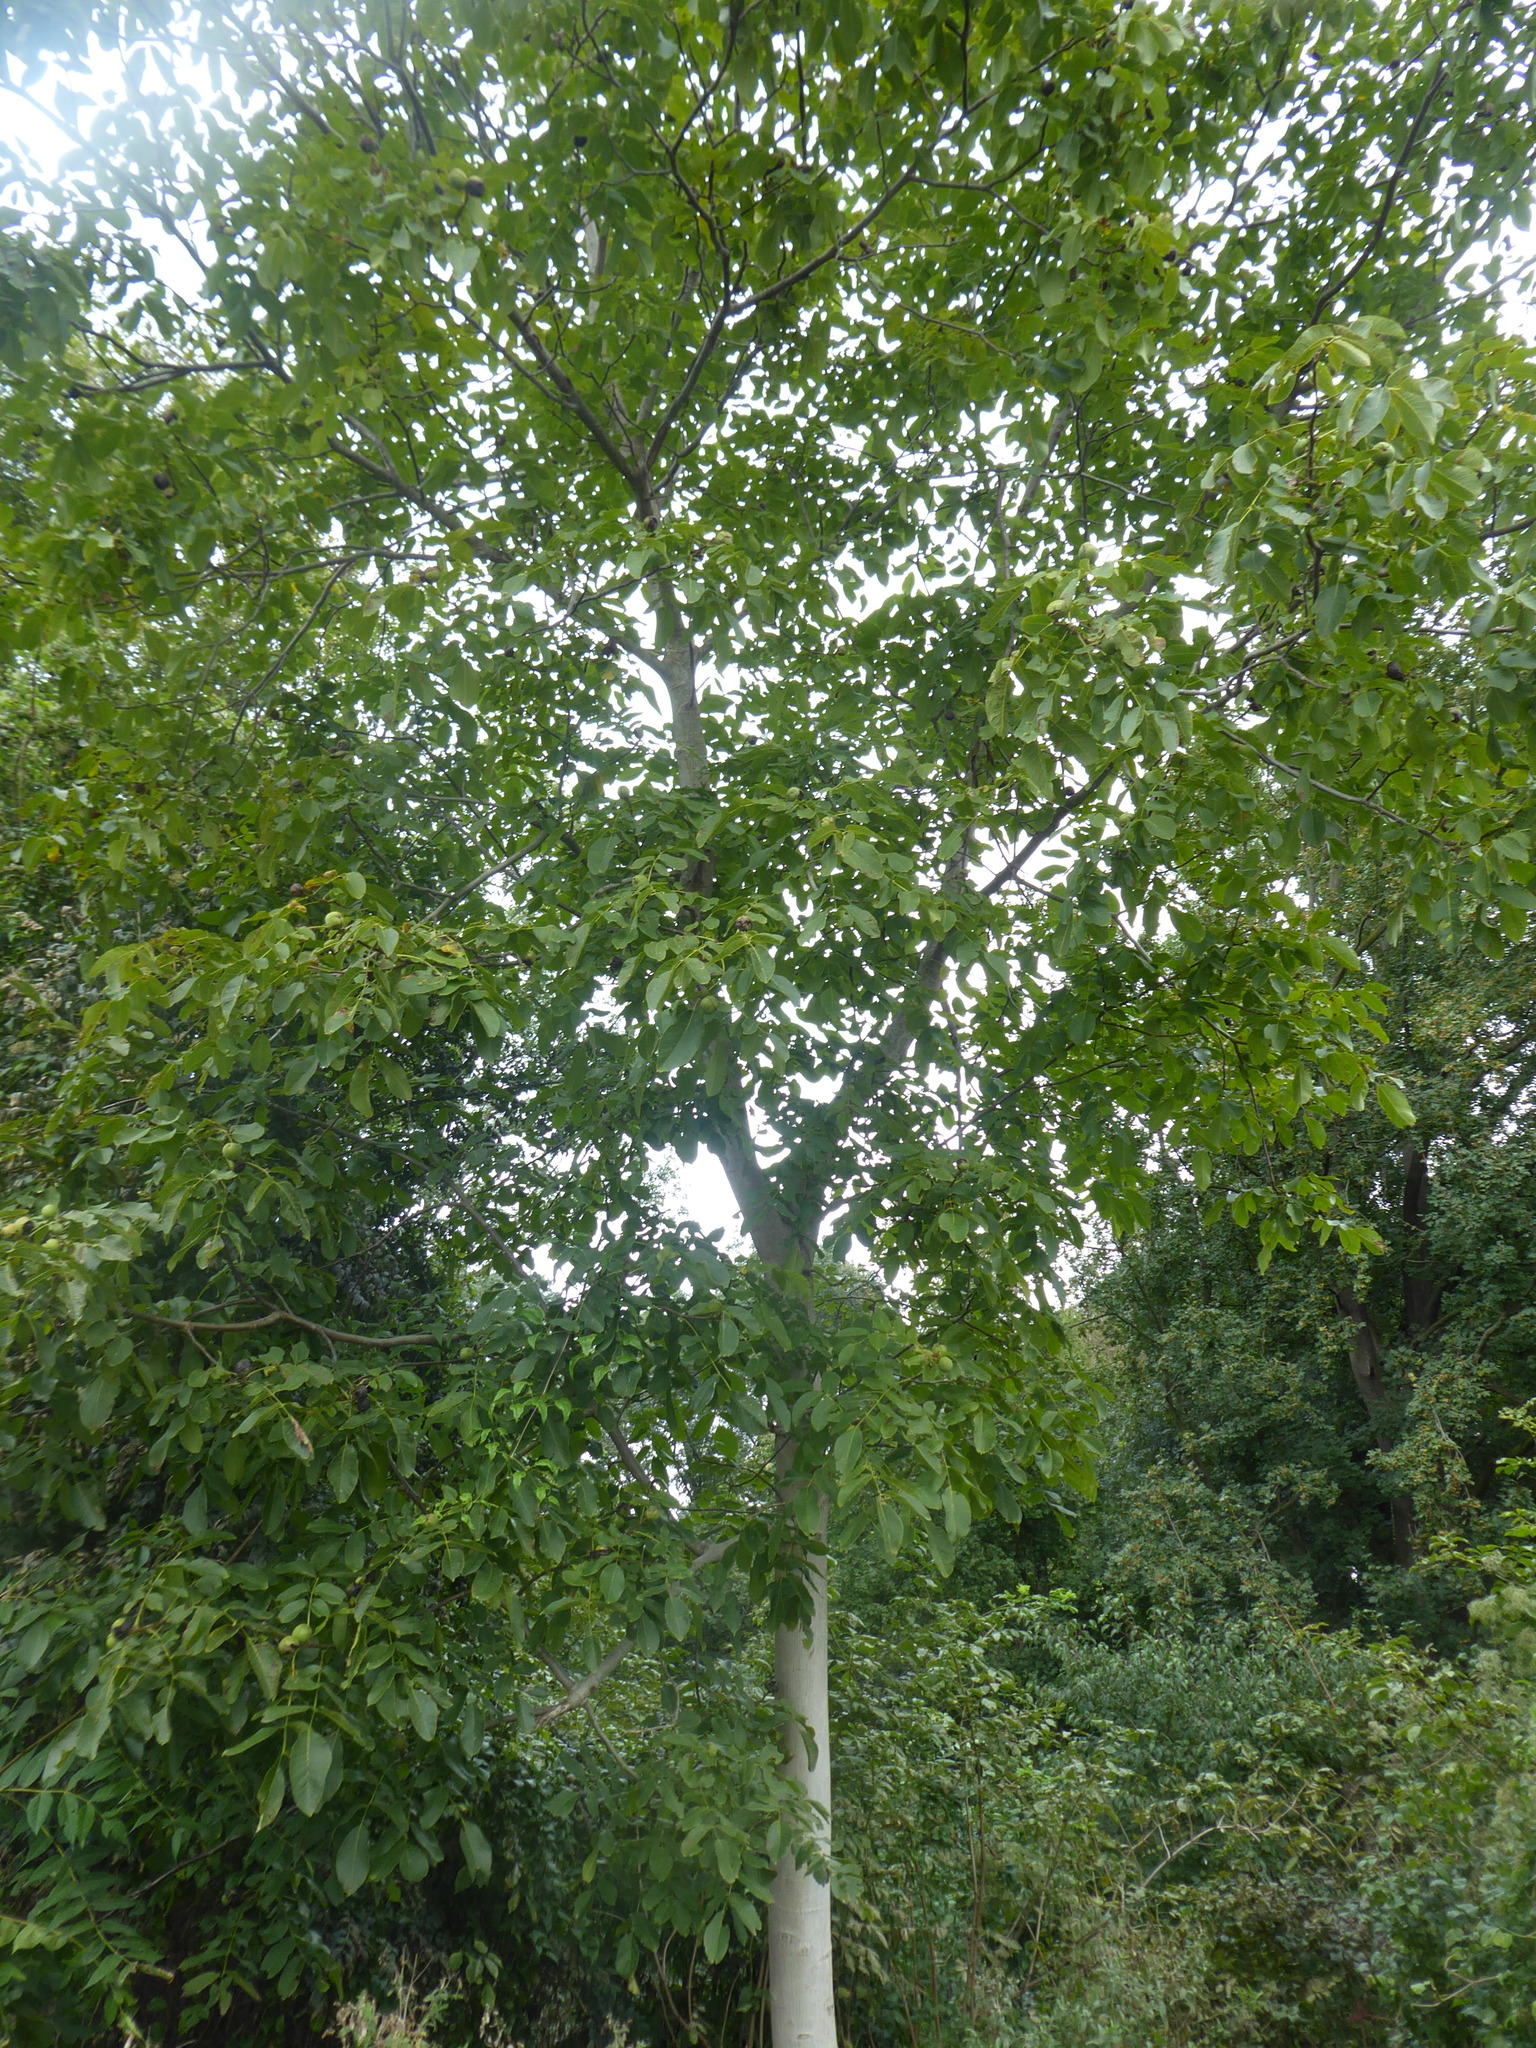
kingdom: Plantae
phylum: Tracheophyta
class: Magnoliopsida
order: Fagales
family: Juglandaceae
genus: Juglans
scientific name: Juglans regia
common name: Walnut
